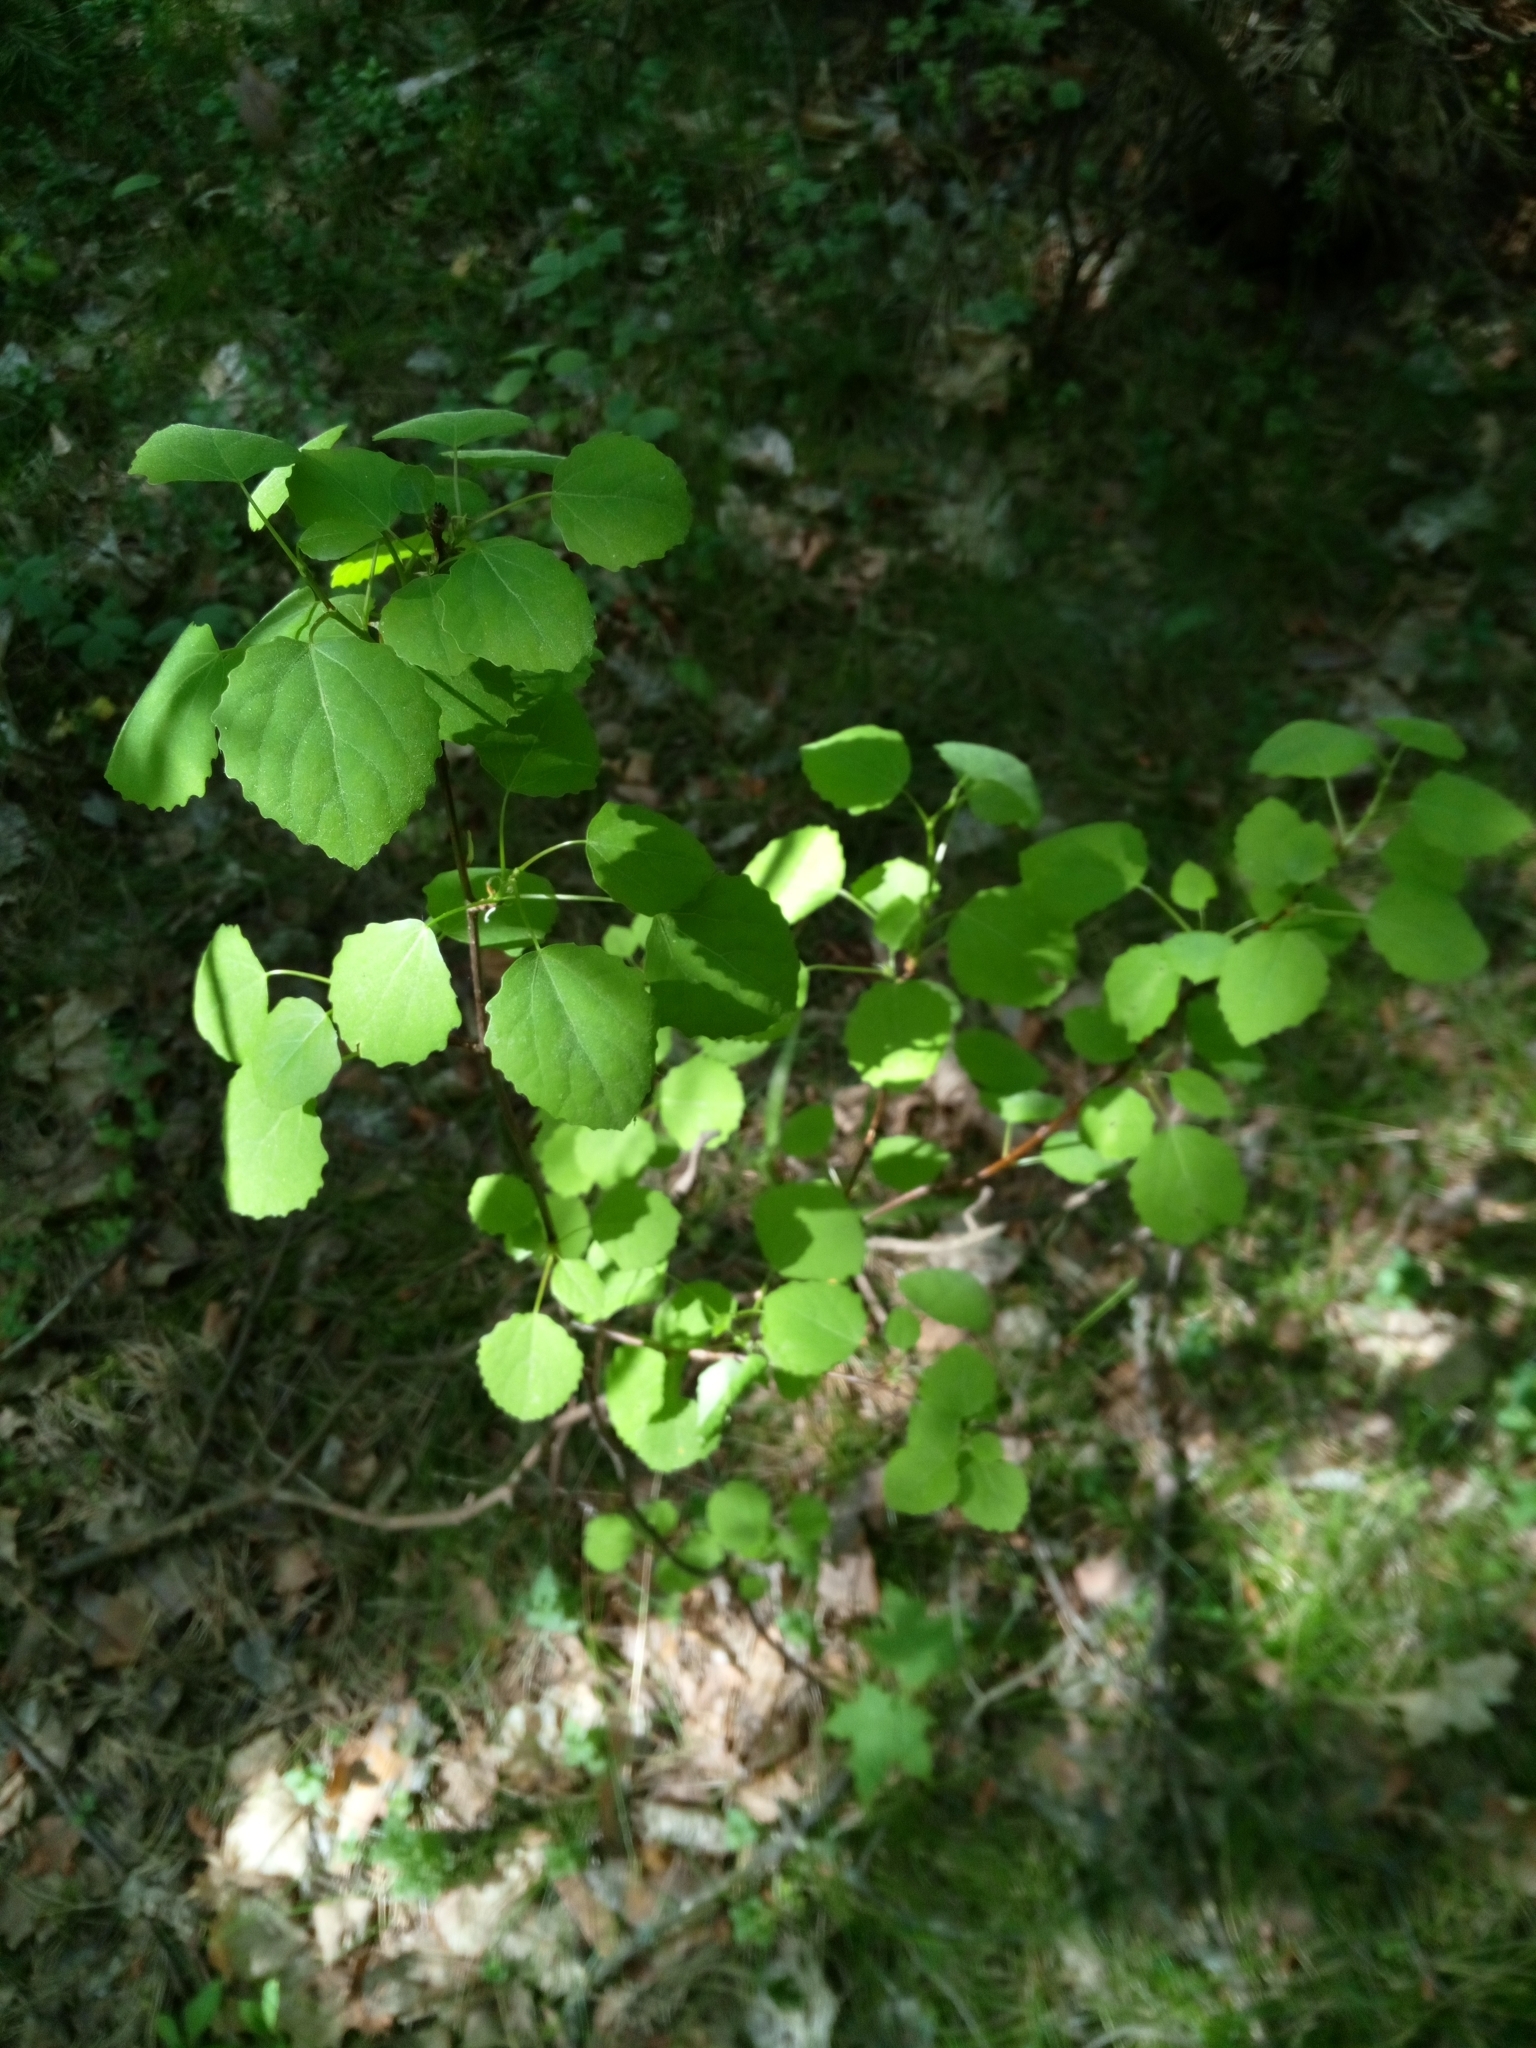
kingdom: Plantae
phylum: Tracheophyta
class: Magnoliopsida
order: Malpighiales
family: Salicaceae
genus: Populus
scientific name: Populus tremula
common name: European aspen
